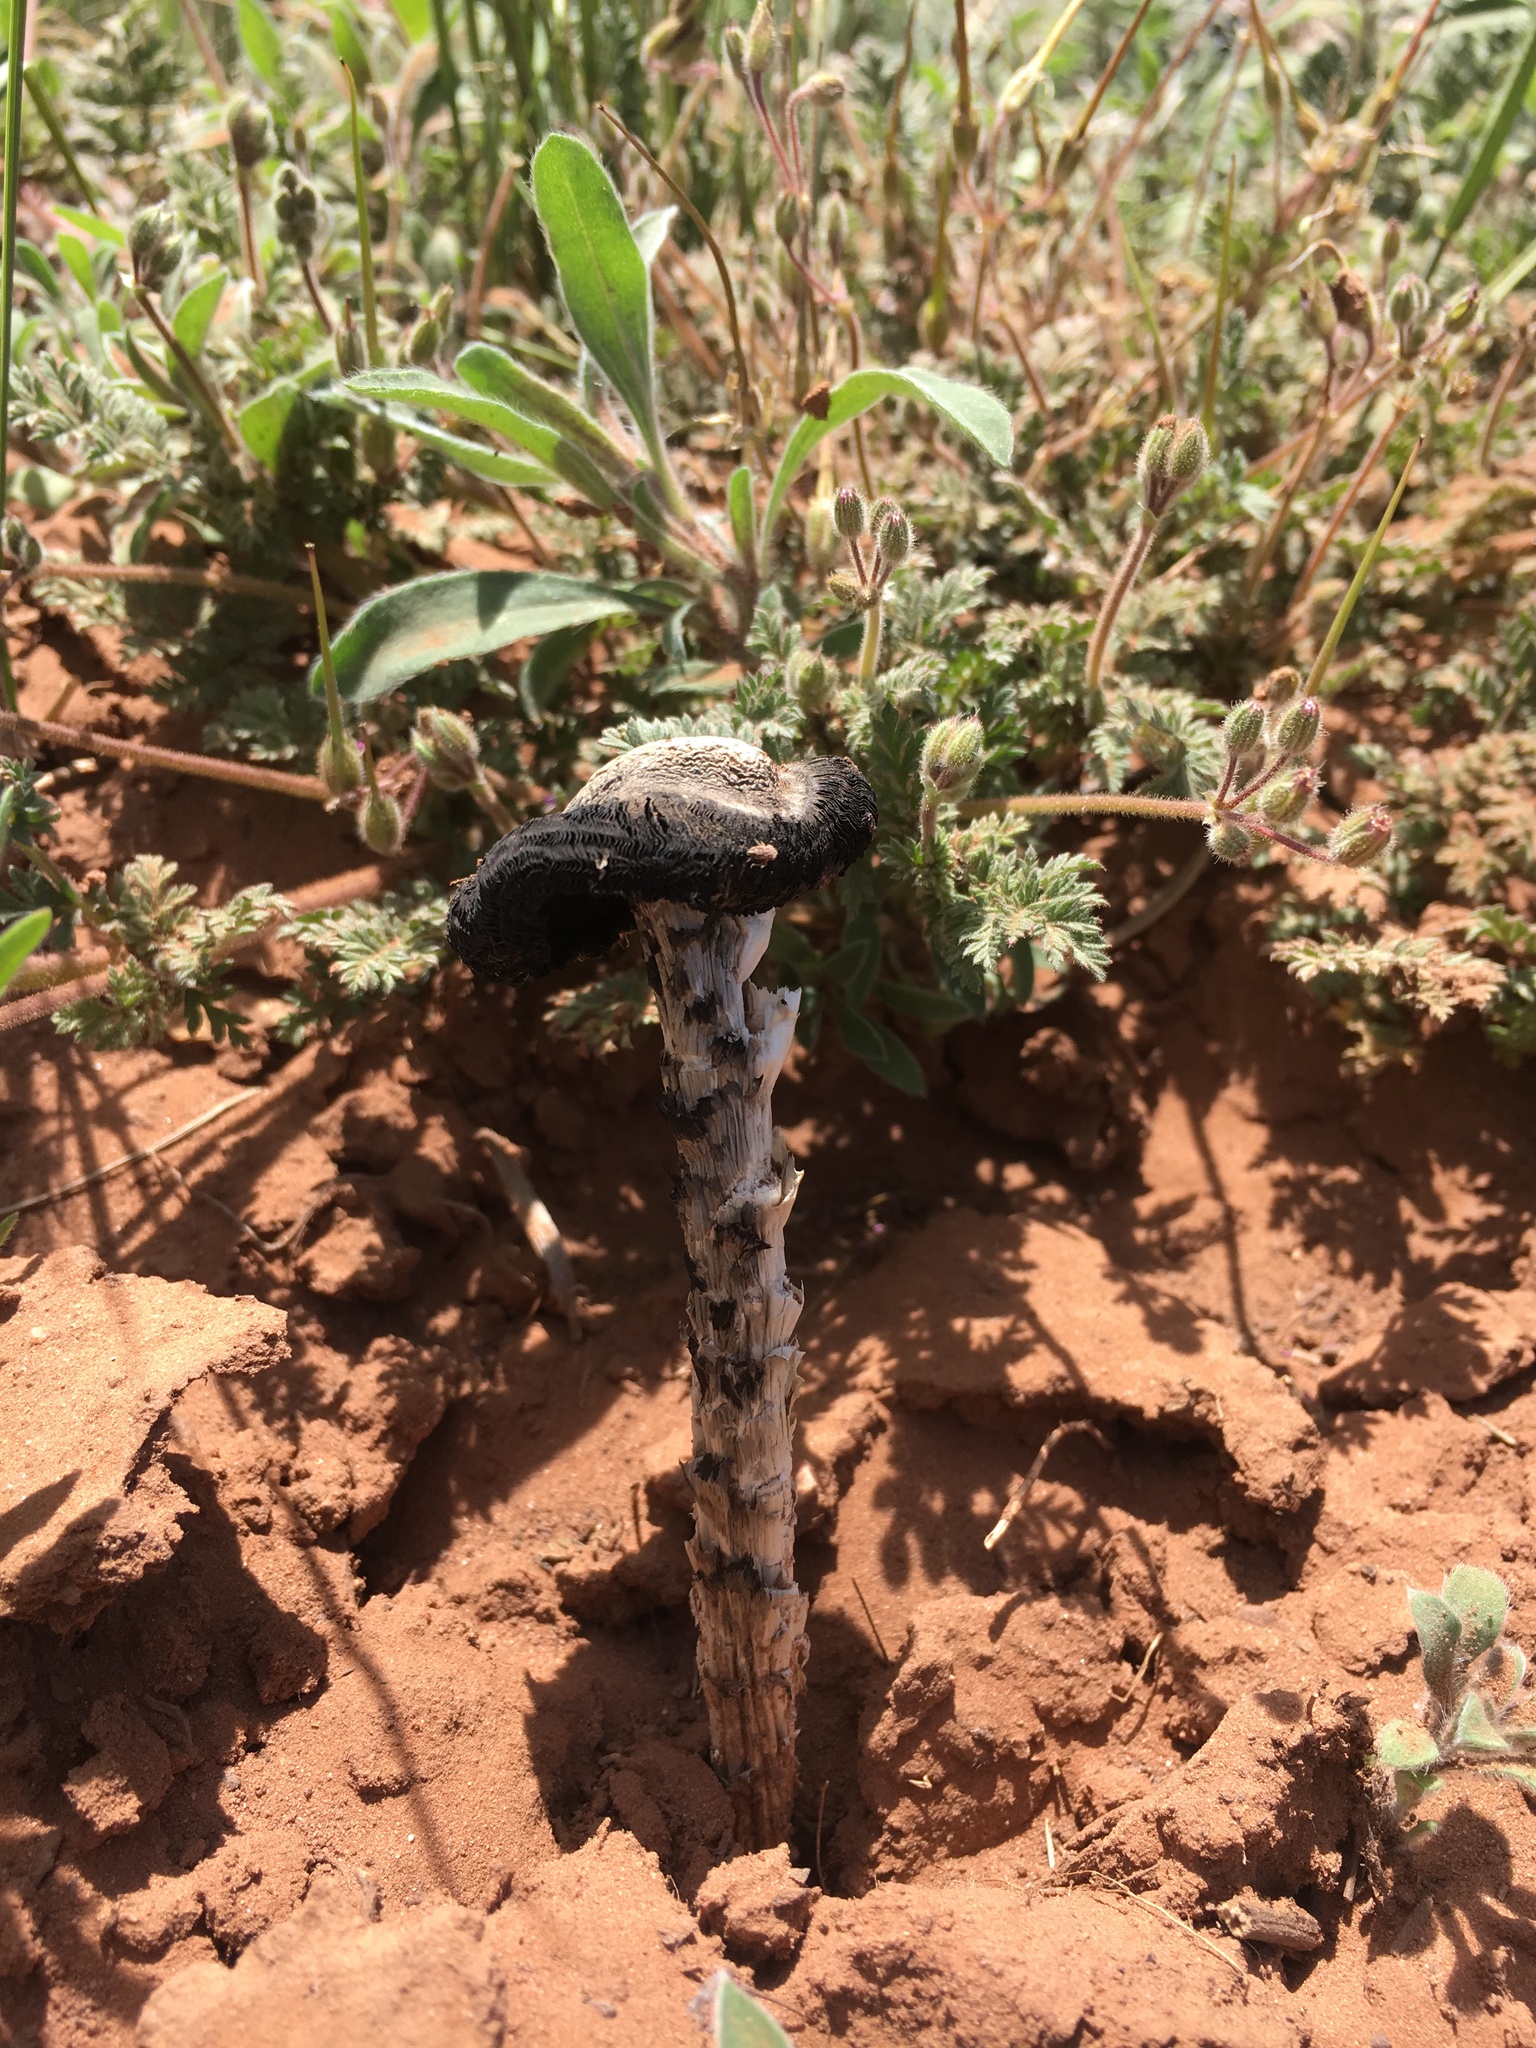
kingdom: Fungi
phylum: Basidiomycota
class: Agaricomycetes
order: Agaricales
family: Agaricaceae
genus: Montagnea
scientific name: Montagnea arenaria
